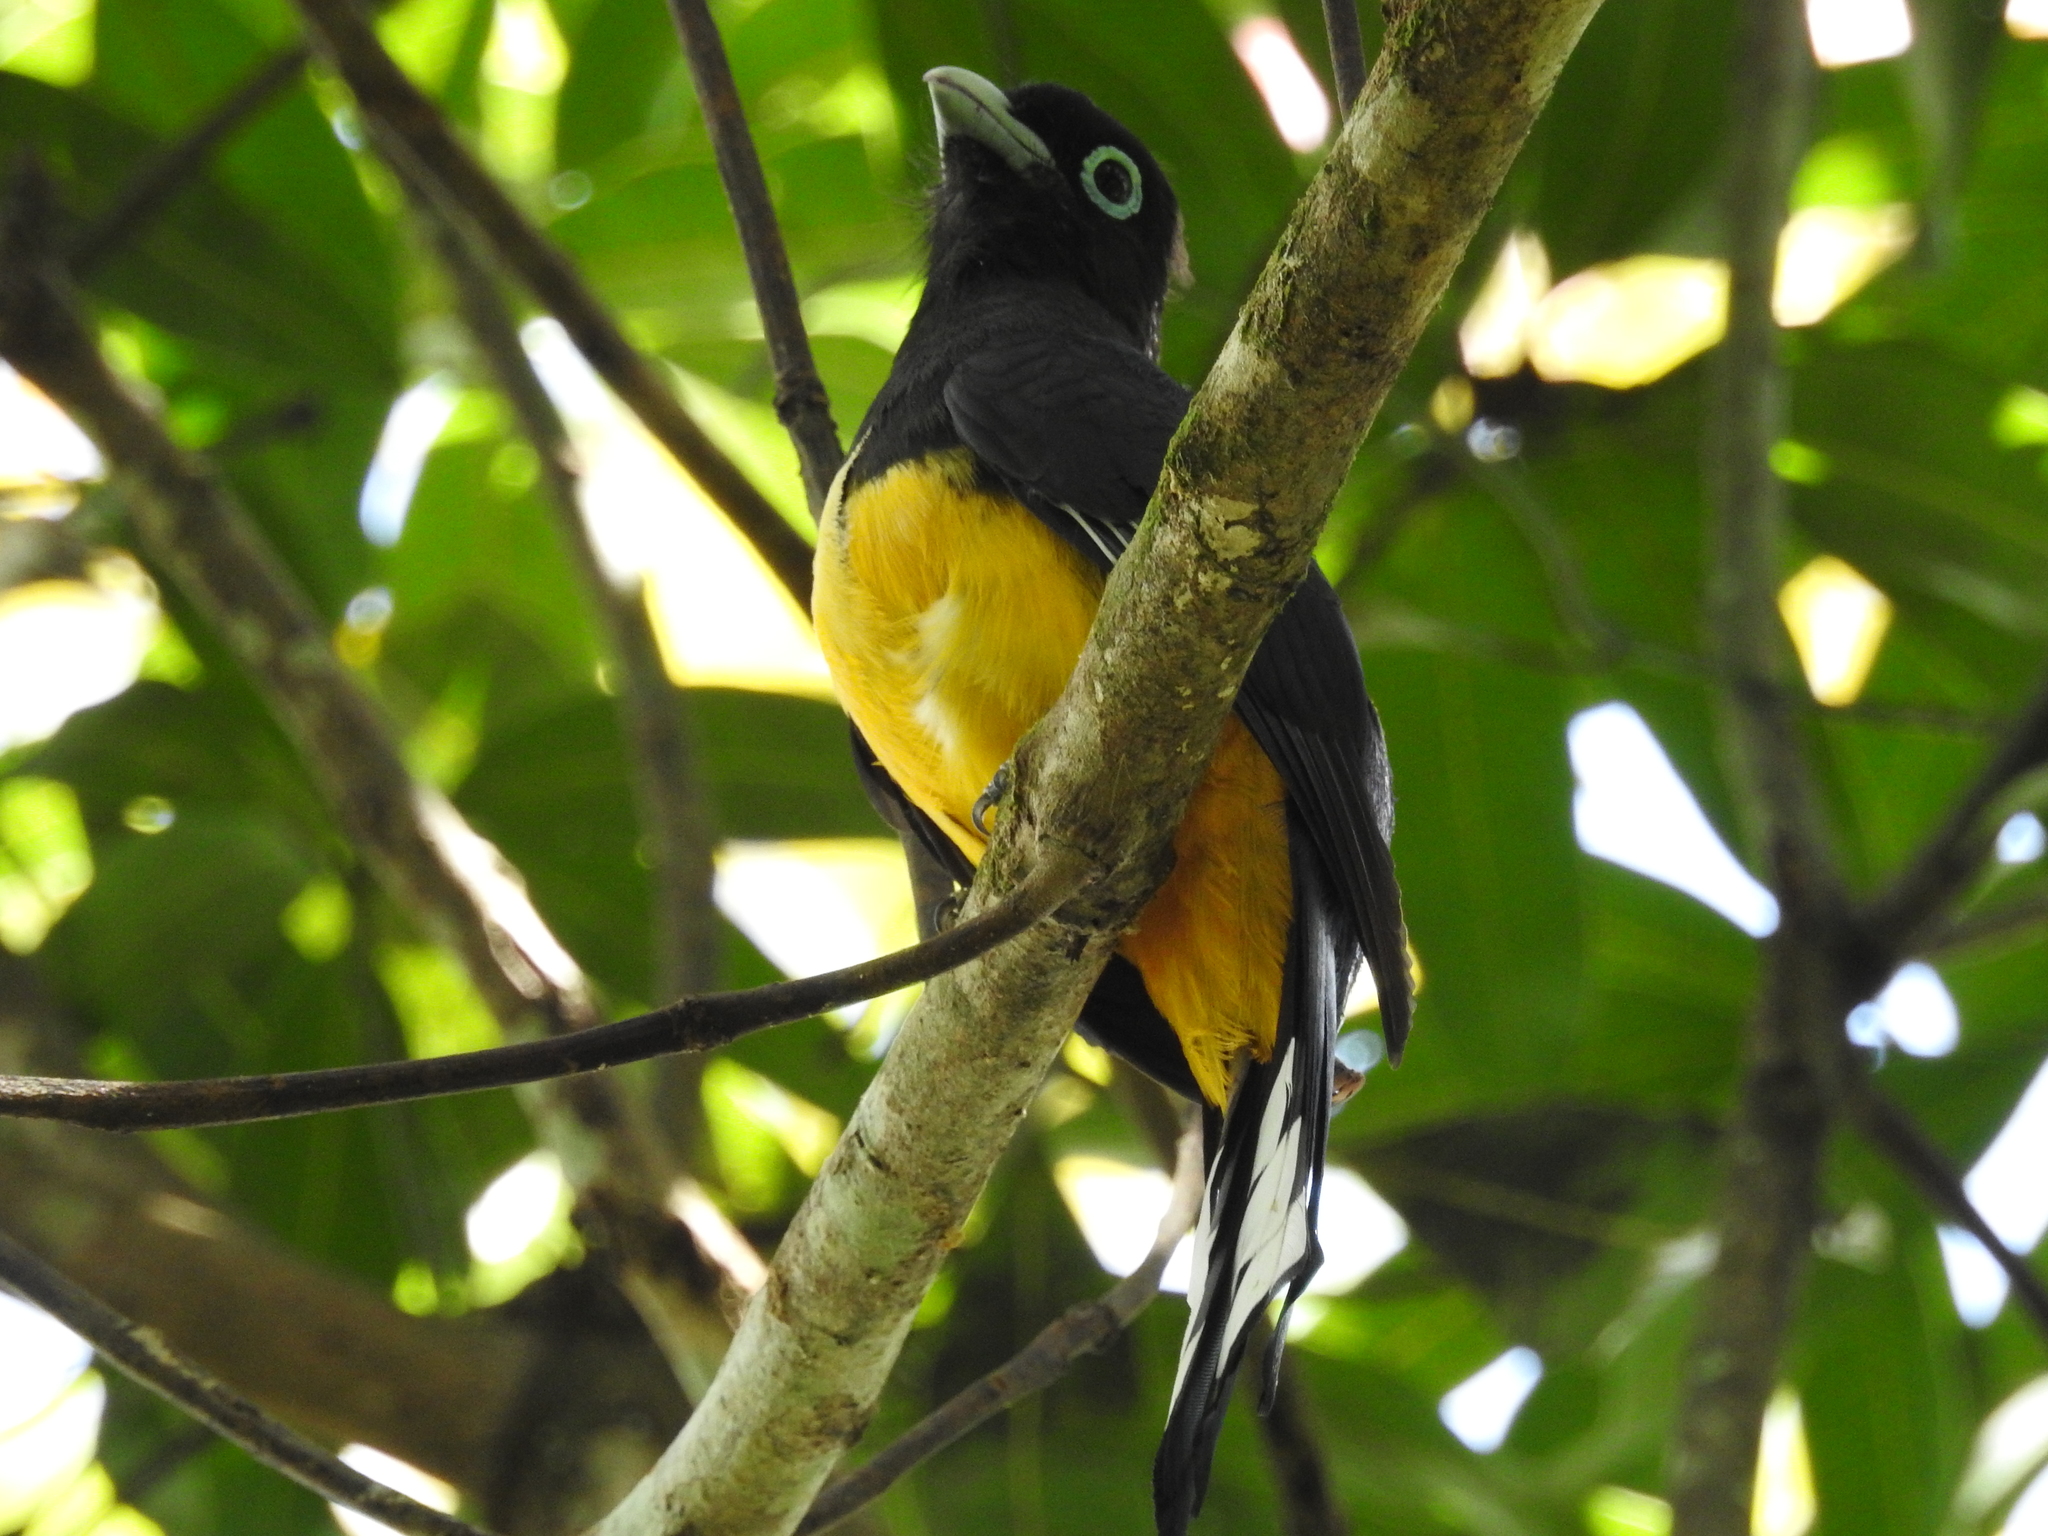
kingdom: Animalia
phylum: Chordata
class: Aves
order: Trogoniformes
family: Trogonidae
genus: Trogon
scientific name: Trogon melanocephalus
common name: Black-headed trogon
